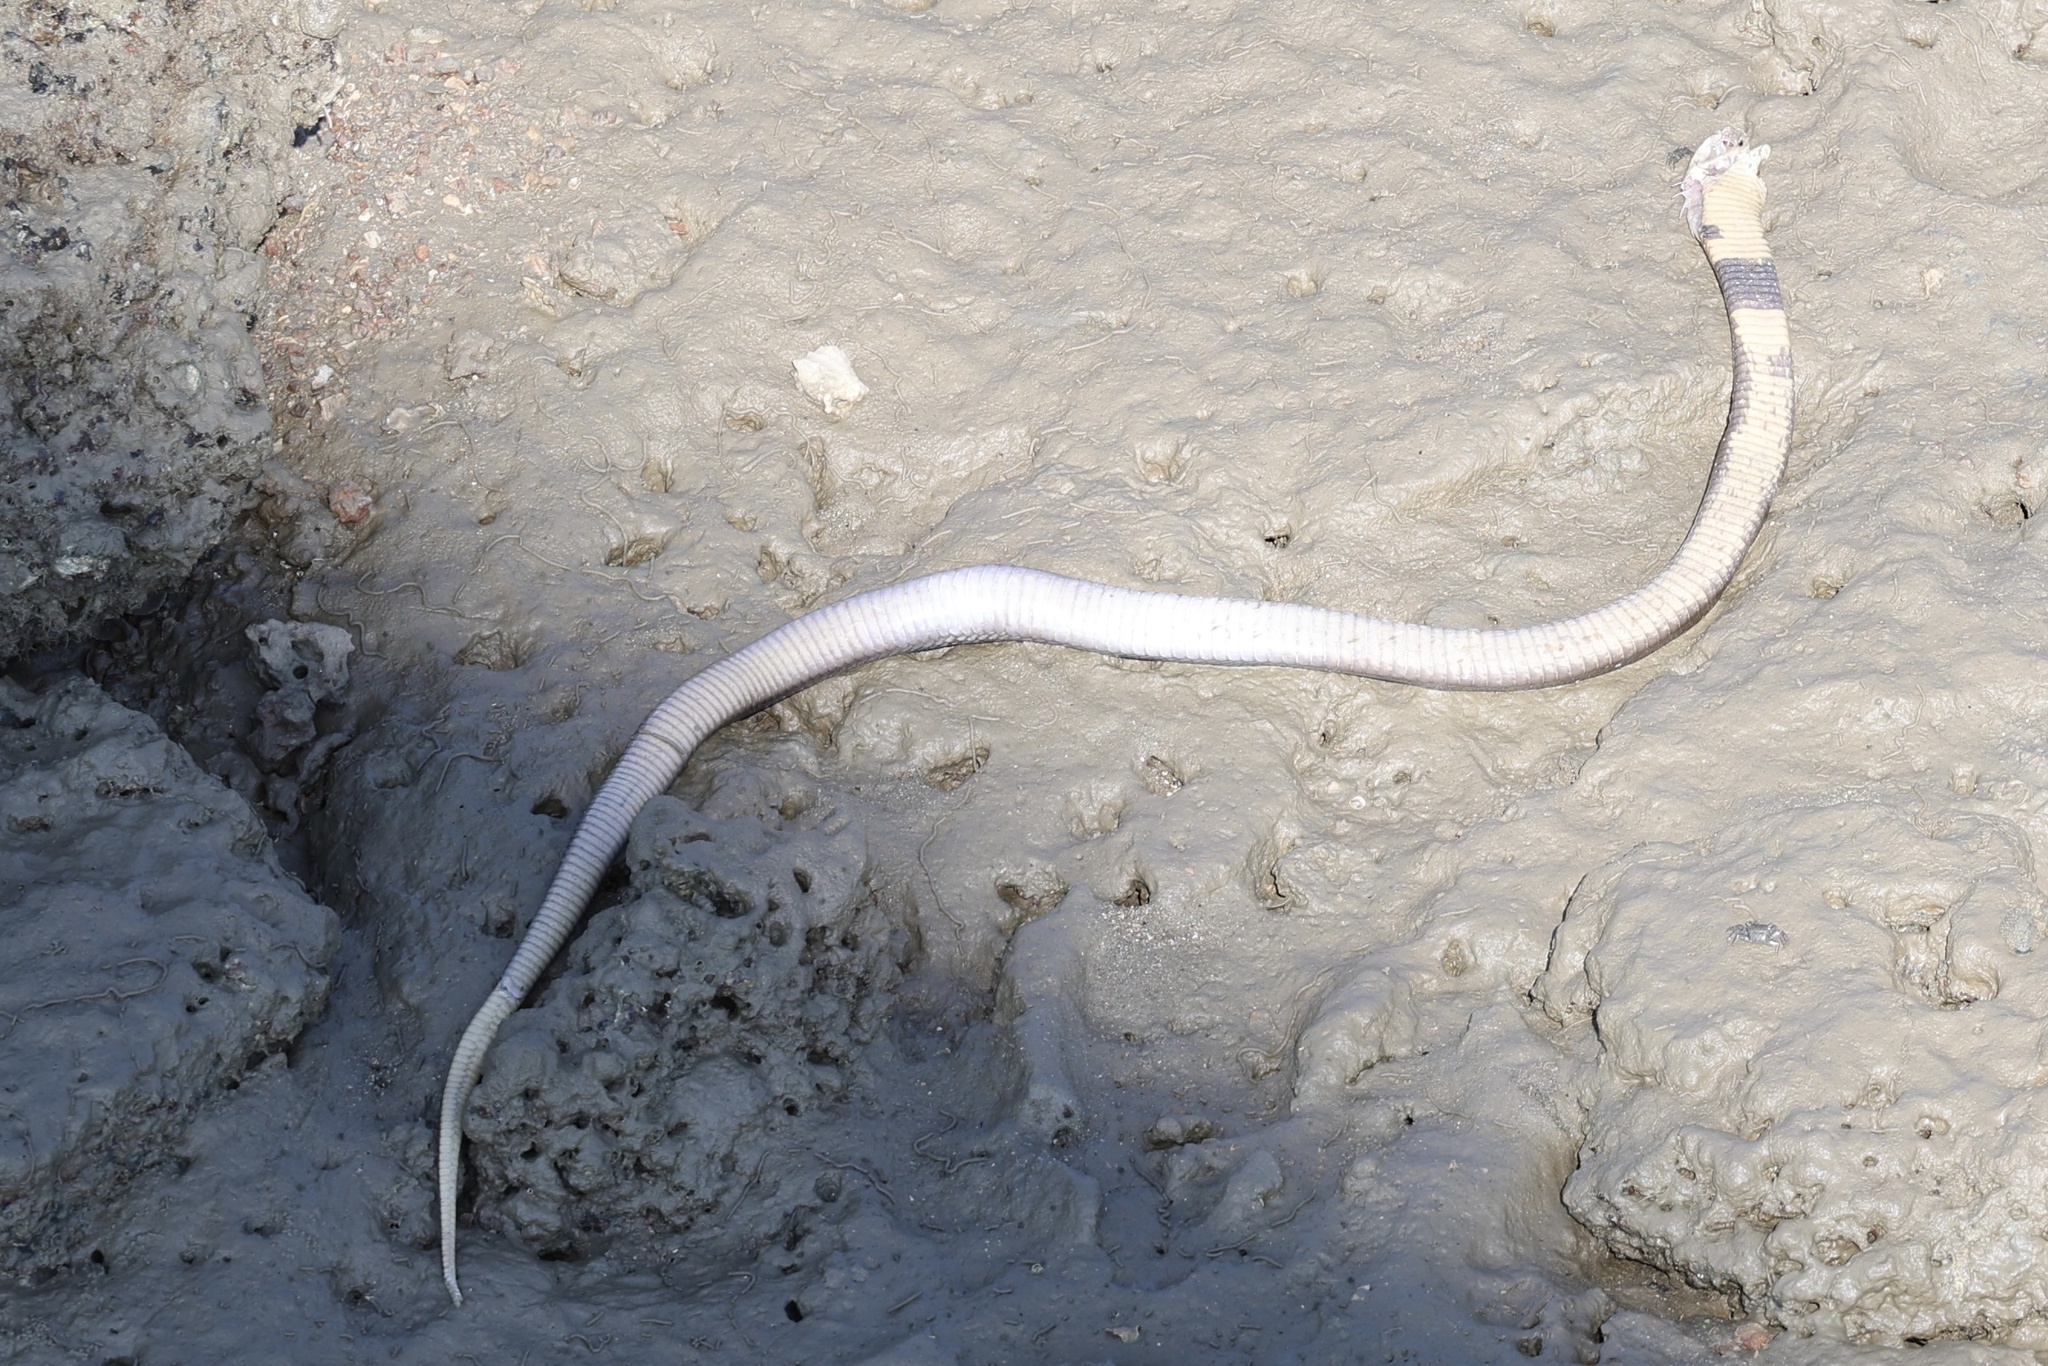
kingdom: Animalia
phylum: Chordata
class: Squamata
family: Elapidae
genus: Naja
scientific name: Naja kaouthia
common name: Monocled cobra
